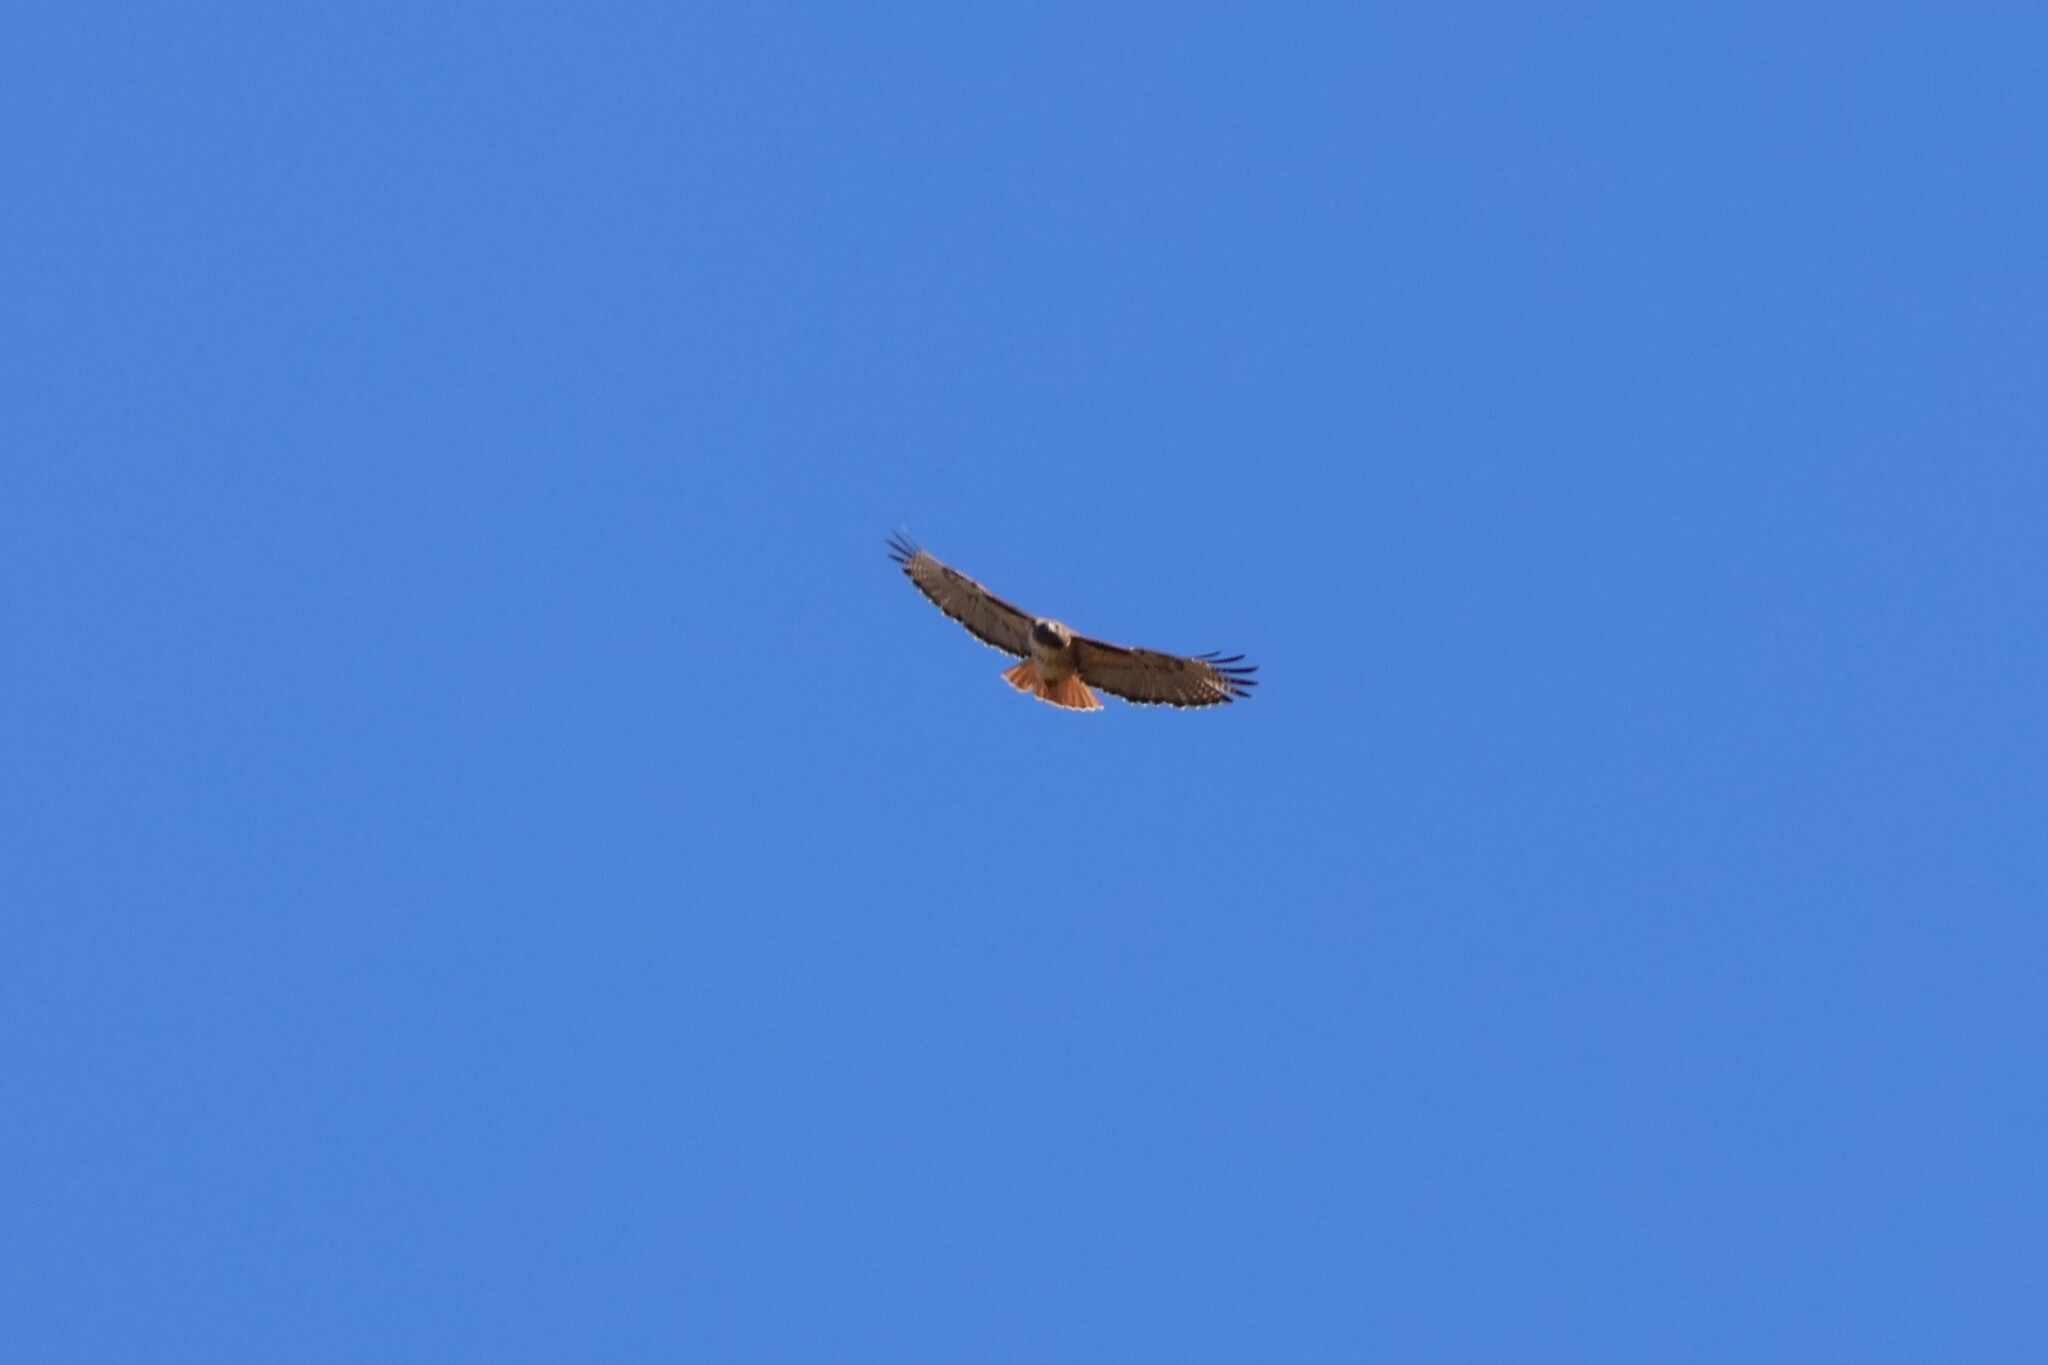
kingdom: Animalia
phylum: Chordata
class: Aves
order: Accipitriformes
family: Accipitridae
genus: Buteo
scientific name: Buteo jamaicensis
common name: Red-tailed hawk
